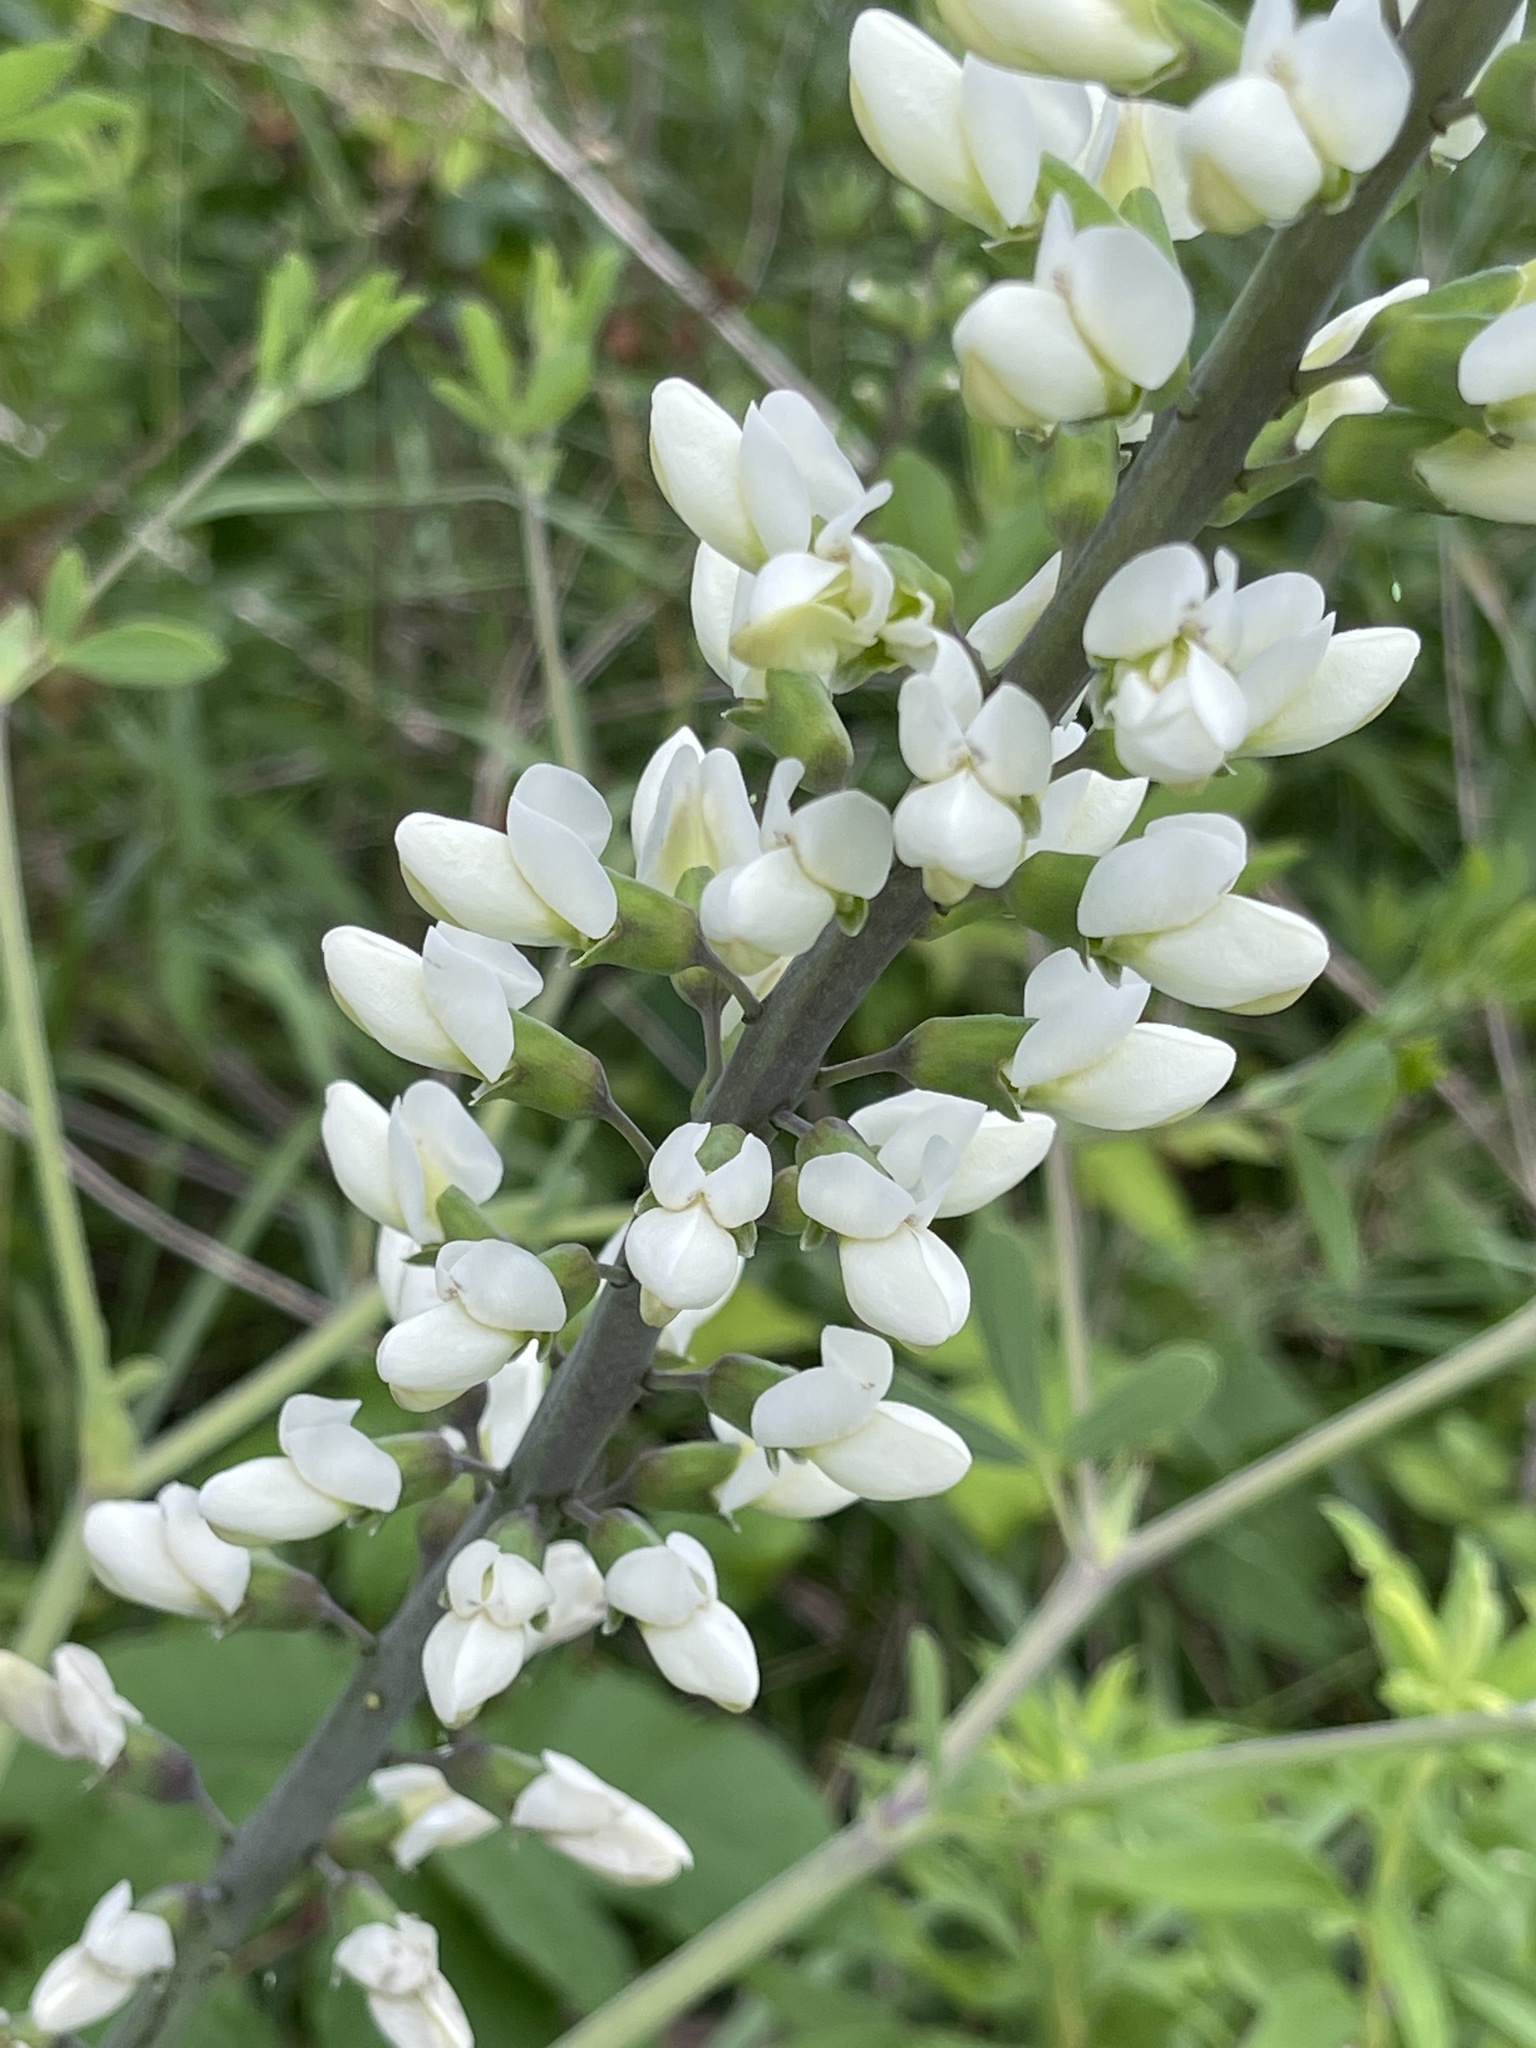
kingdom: Plantae
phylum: Tracheophyta
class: Magnoliopsida
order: Fabales
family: Fabaceae
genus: Baptisia
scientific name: Baptisia alba
